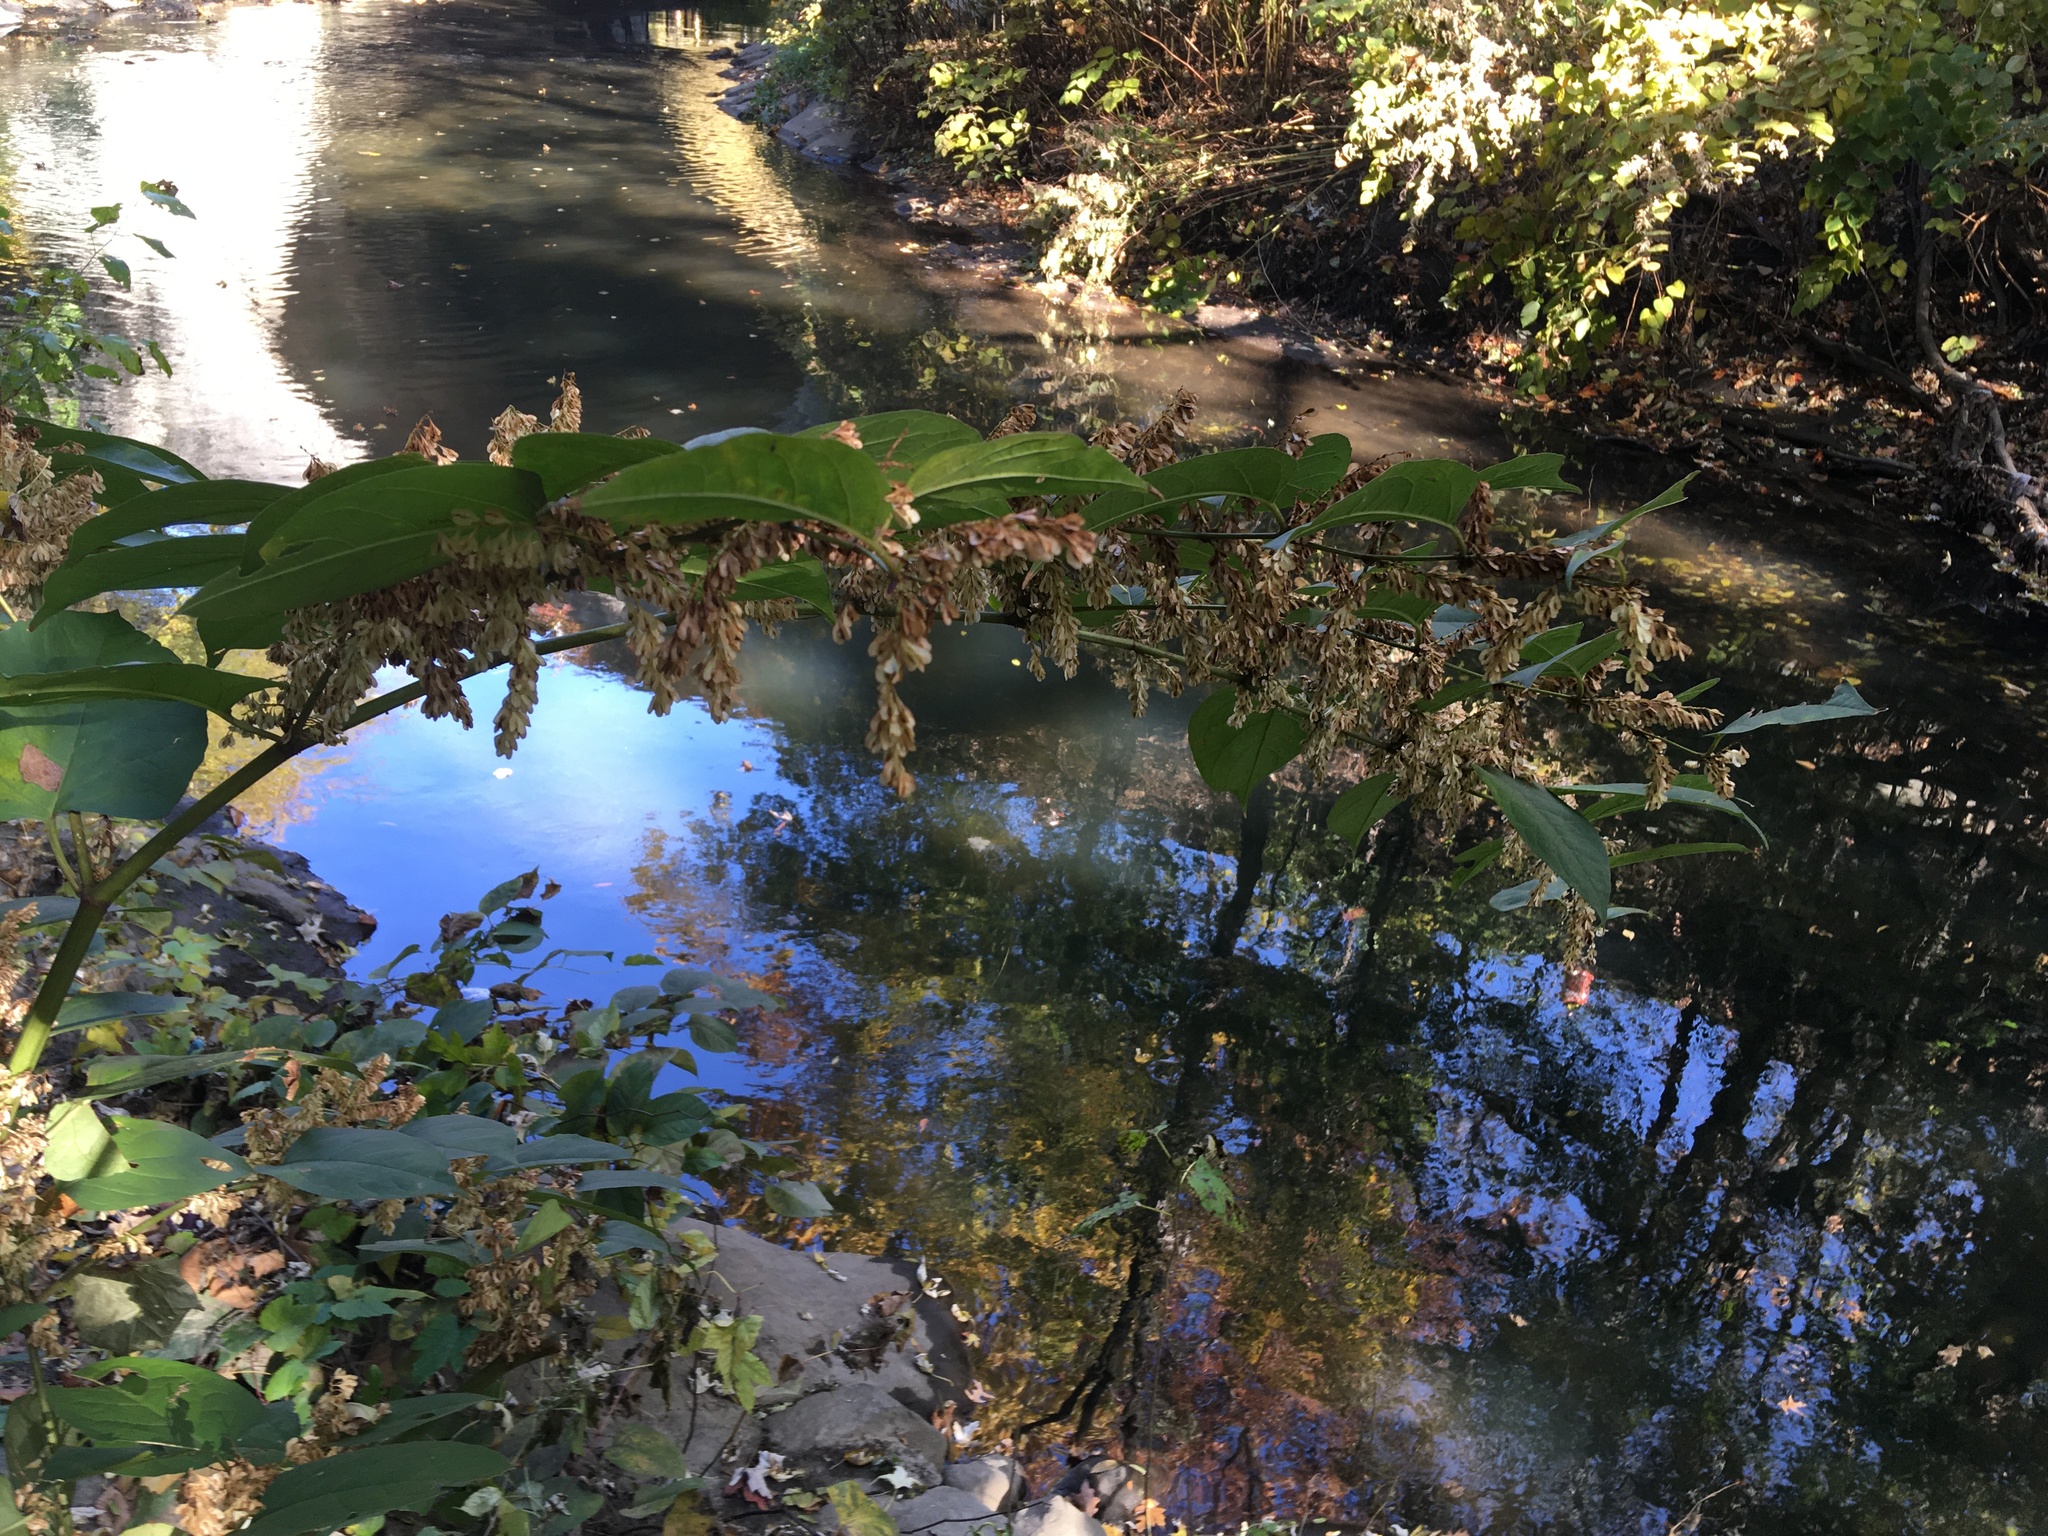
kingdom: Plantae
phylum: Tracheophyta
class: Magnoliopsida
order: Caryophyllales
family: Polygonaceae
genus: Reynoutria
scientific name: Reynoutria japonica
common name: Japanese knotweed
